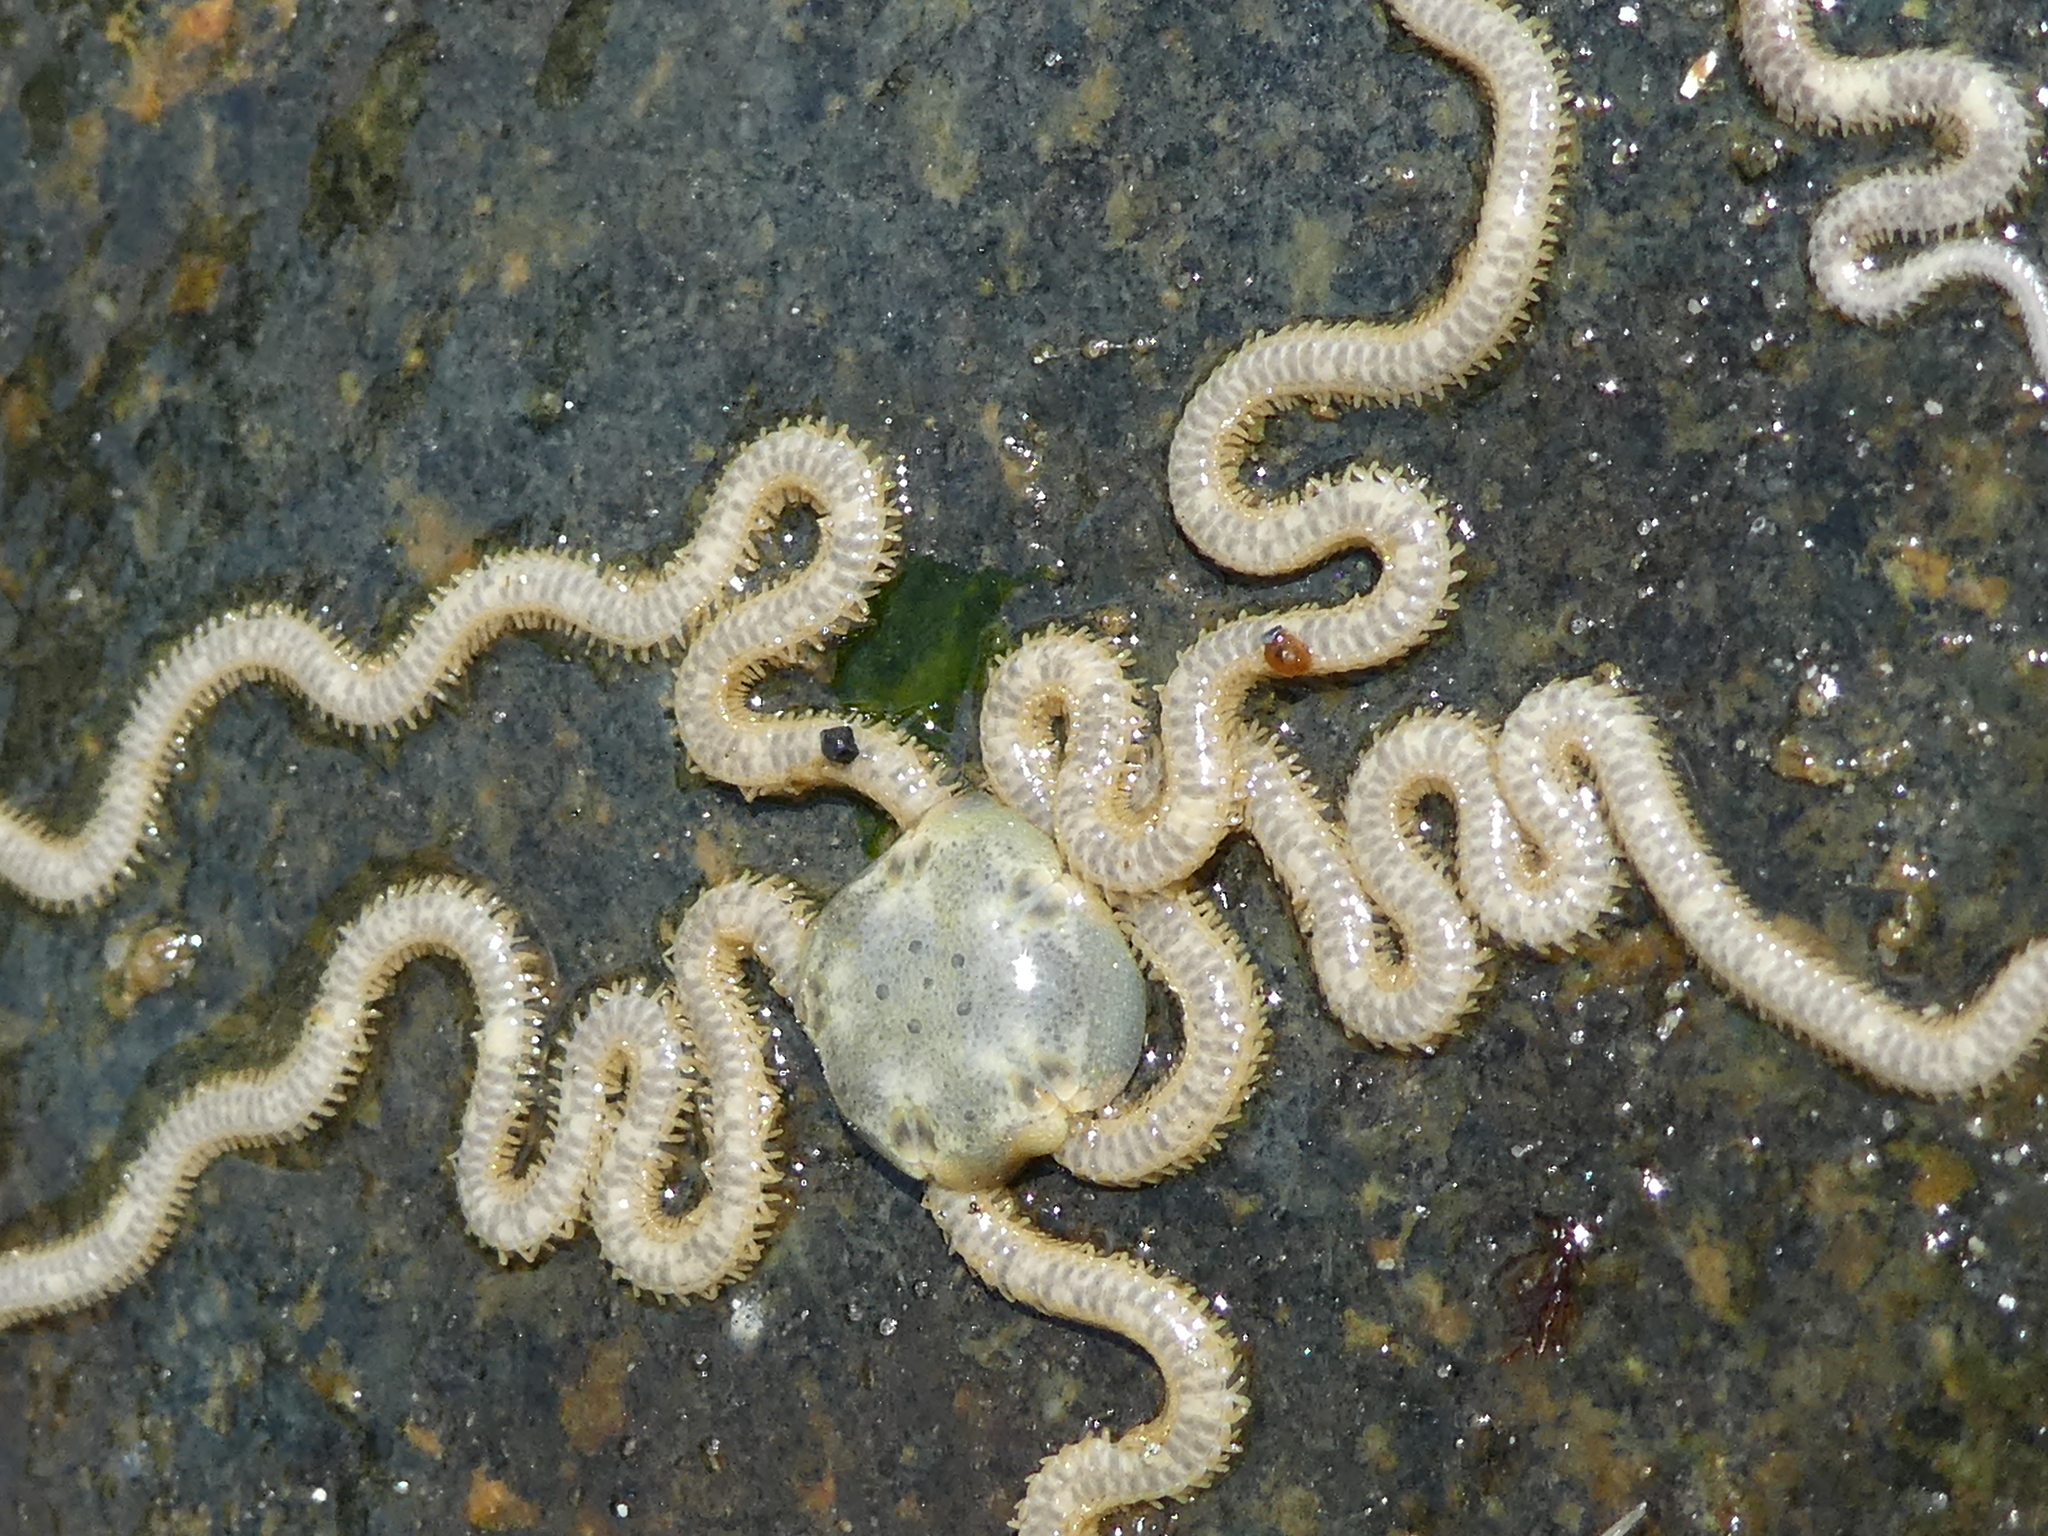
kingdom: Animalia
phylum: Echinodermata
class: Ophiuroidea
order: Amphilepidida
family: Amphiuridae
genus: Amphiodia
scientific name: Amphiodia occidentalis
